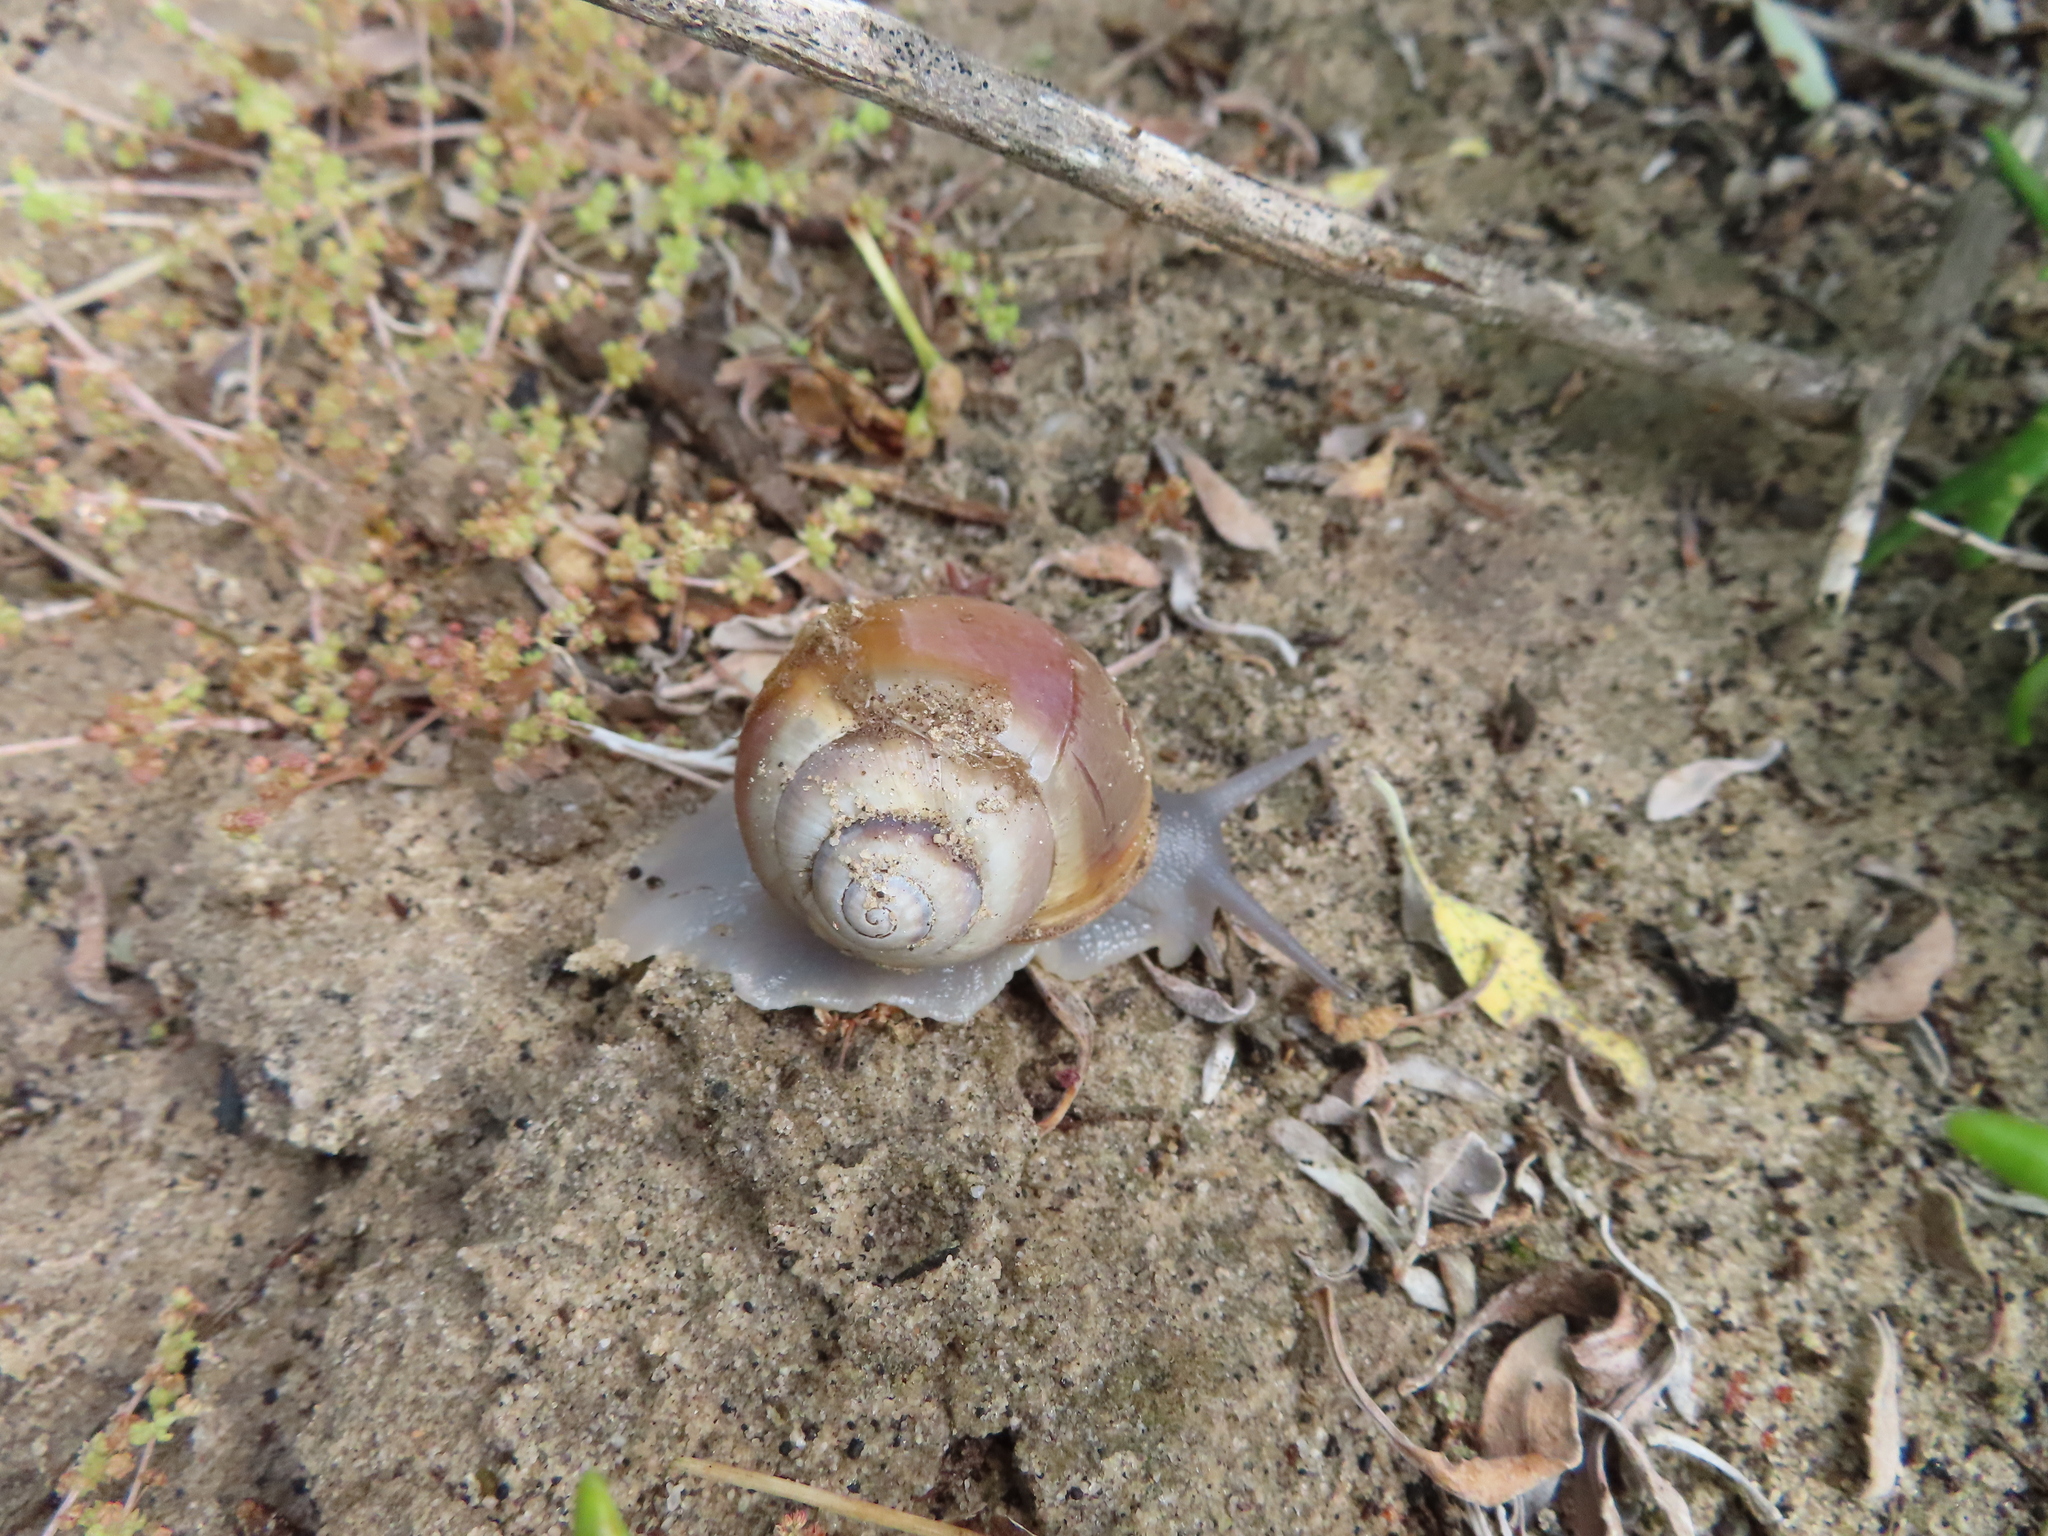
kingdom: Animalia
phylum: Mollusca
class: Gastropoda
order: Stylommatophora
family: Dorcasiidae
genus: Trigonephrus
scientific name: Trigonephrus globulus
